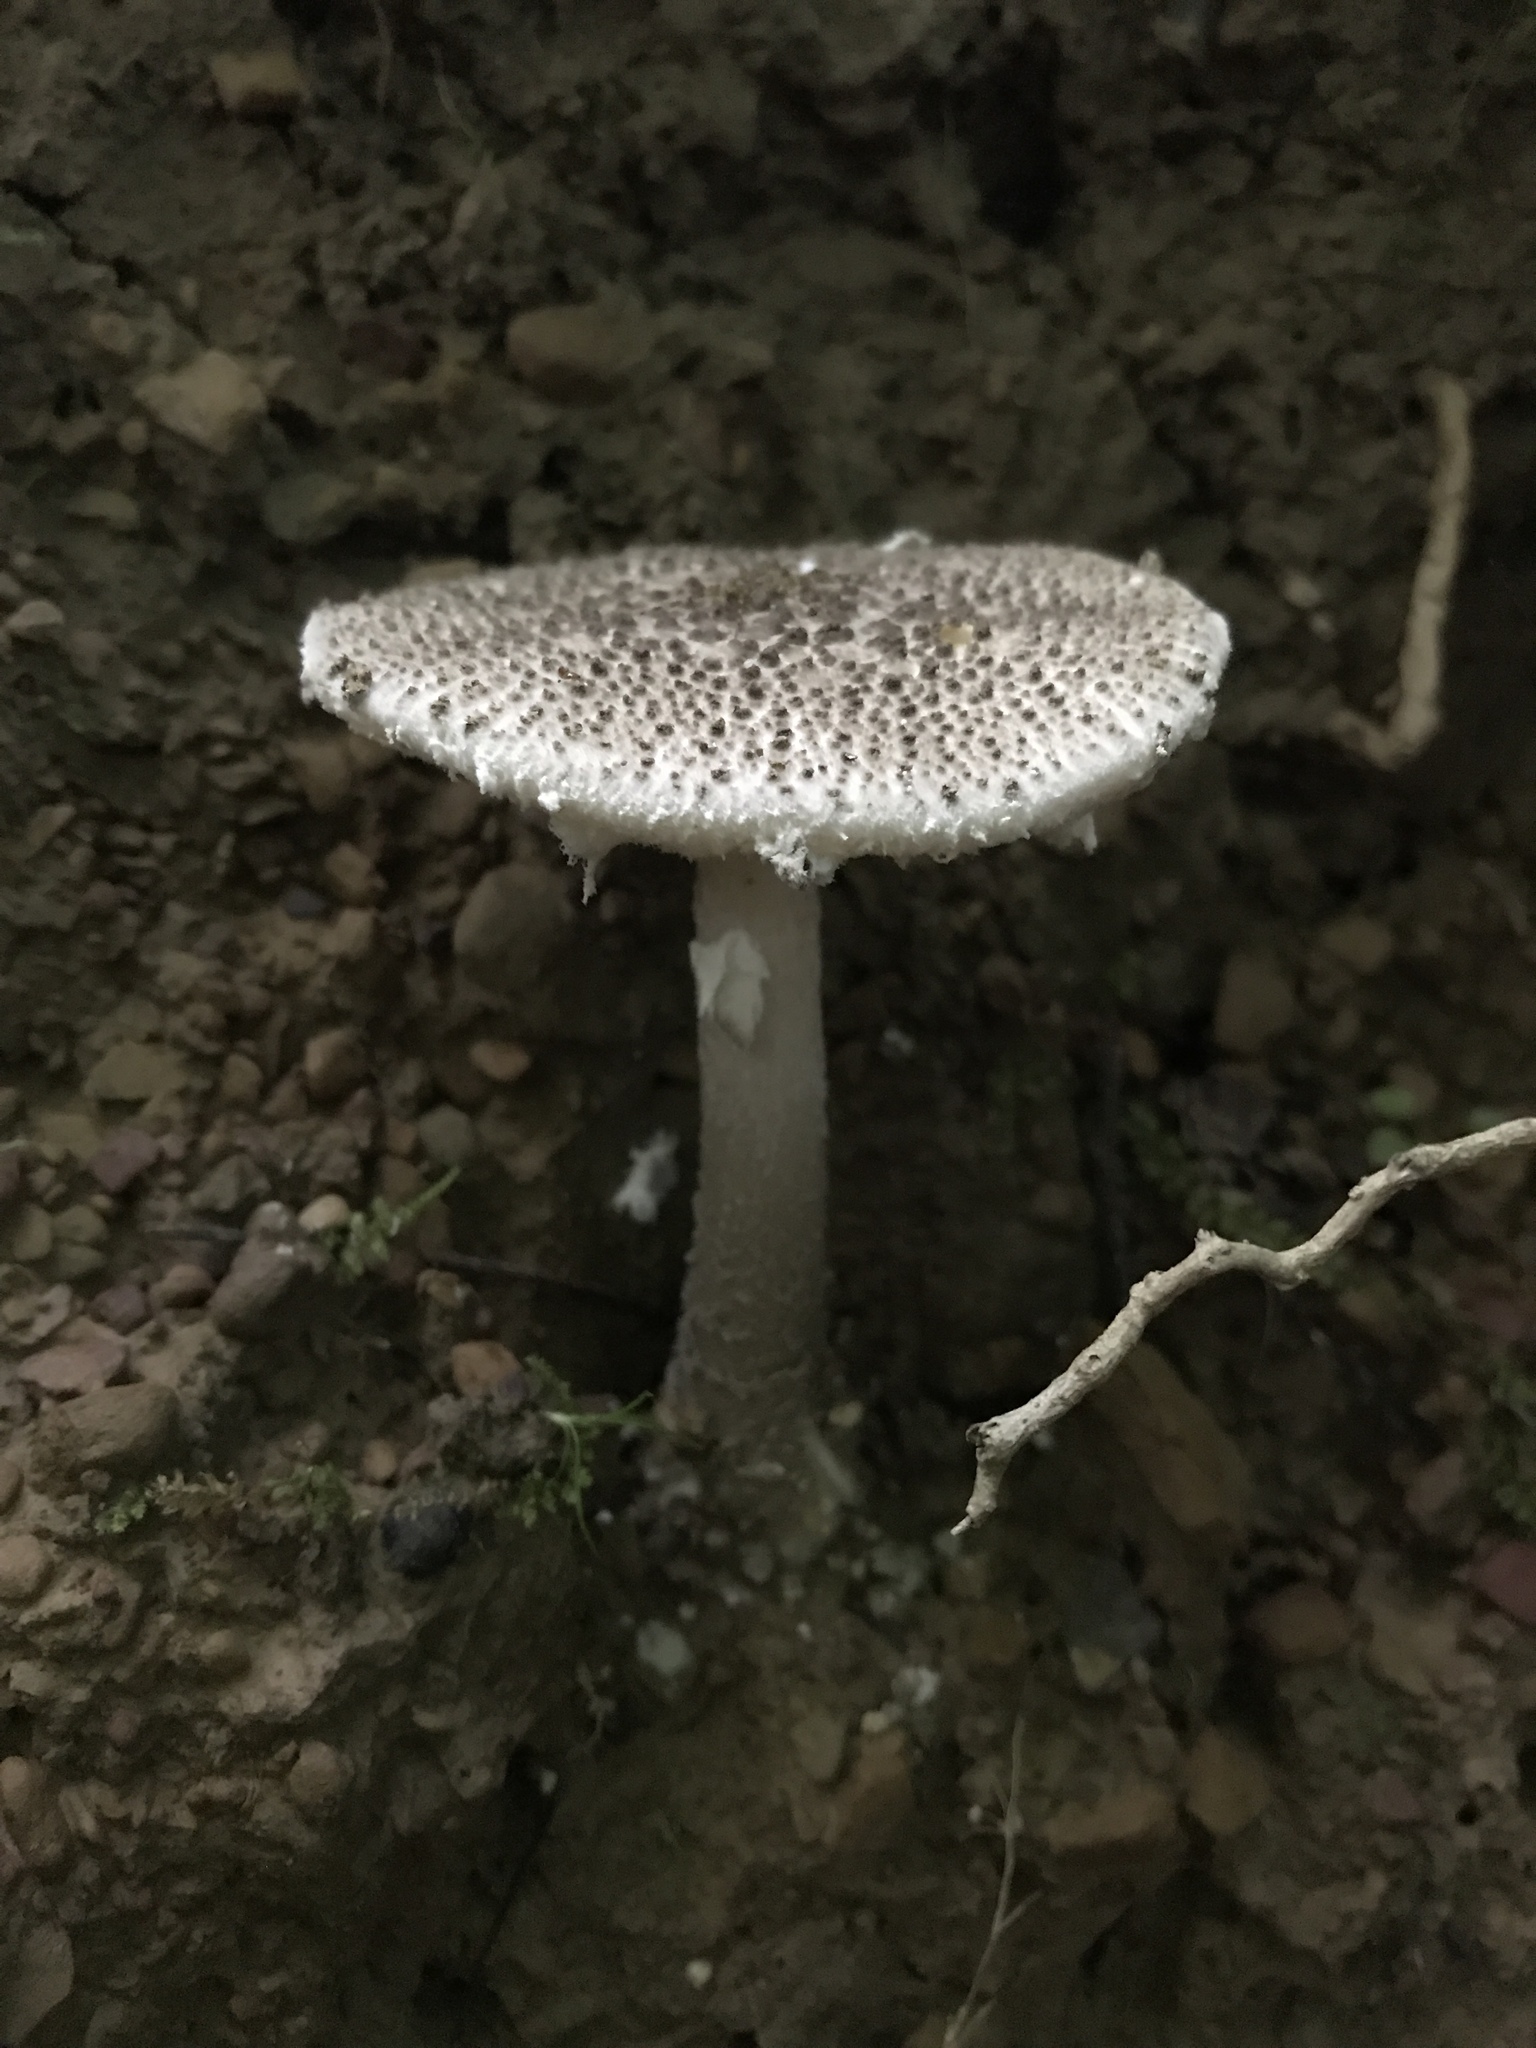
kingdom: Fungi
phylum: Basidiomycota
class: Agaricomycetes
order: Agaricales
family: Amanitaceae
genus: Amanita
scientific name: Amanita onusta
